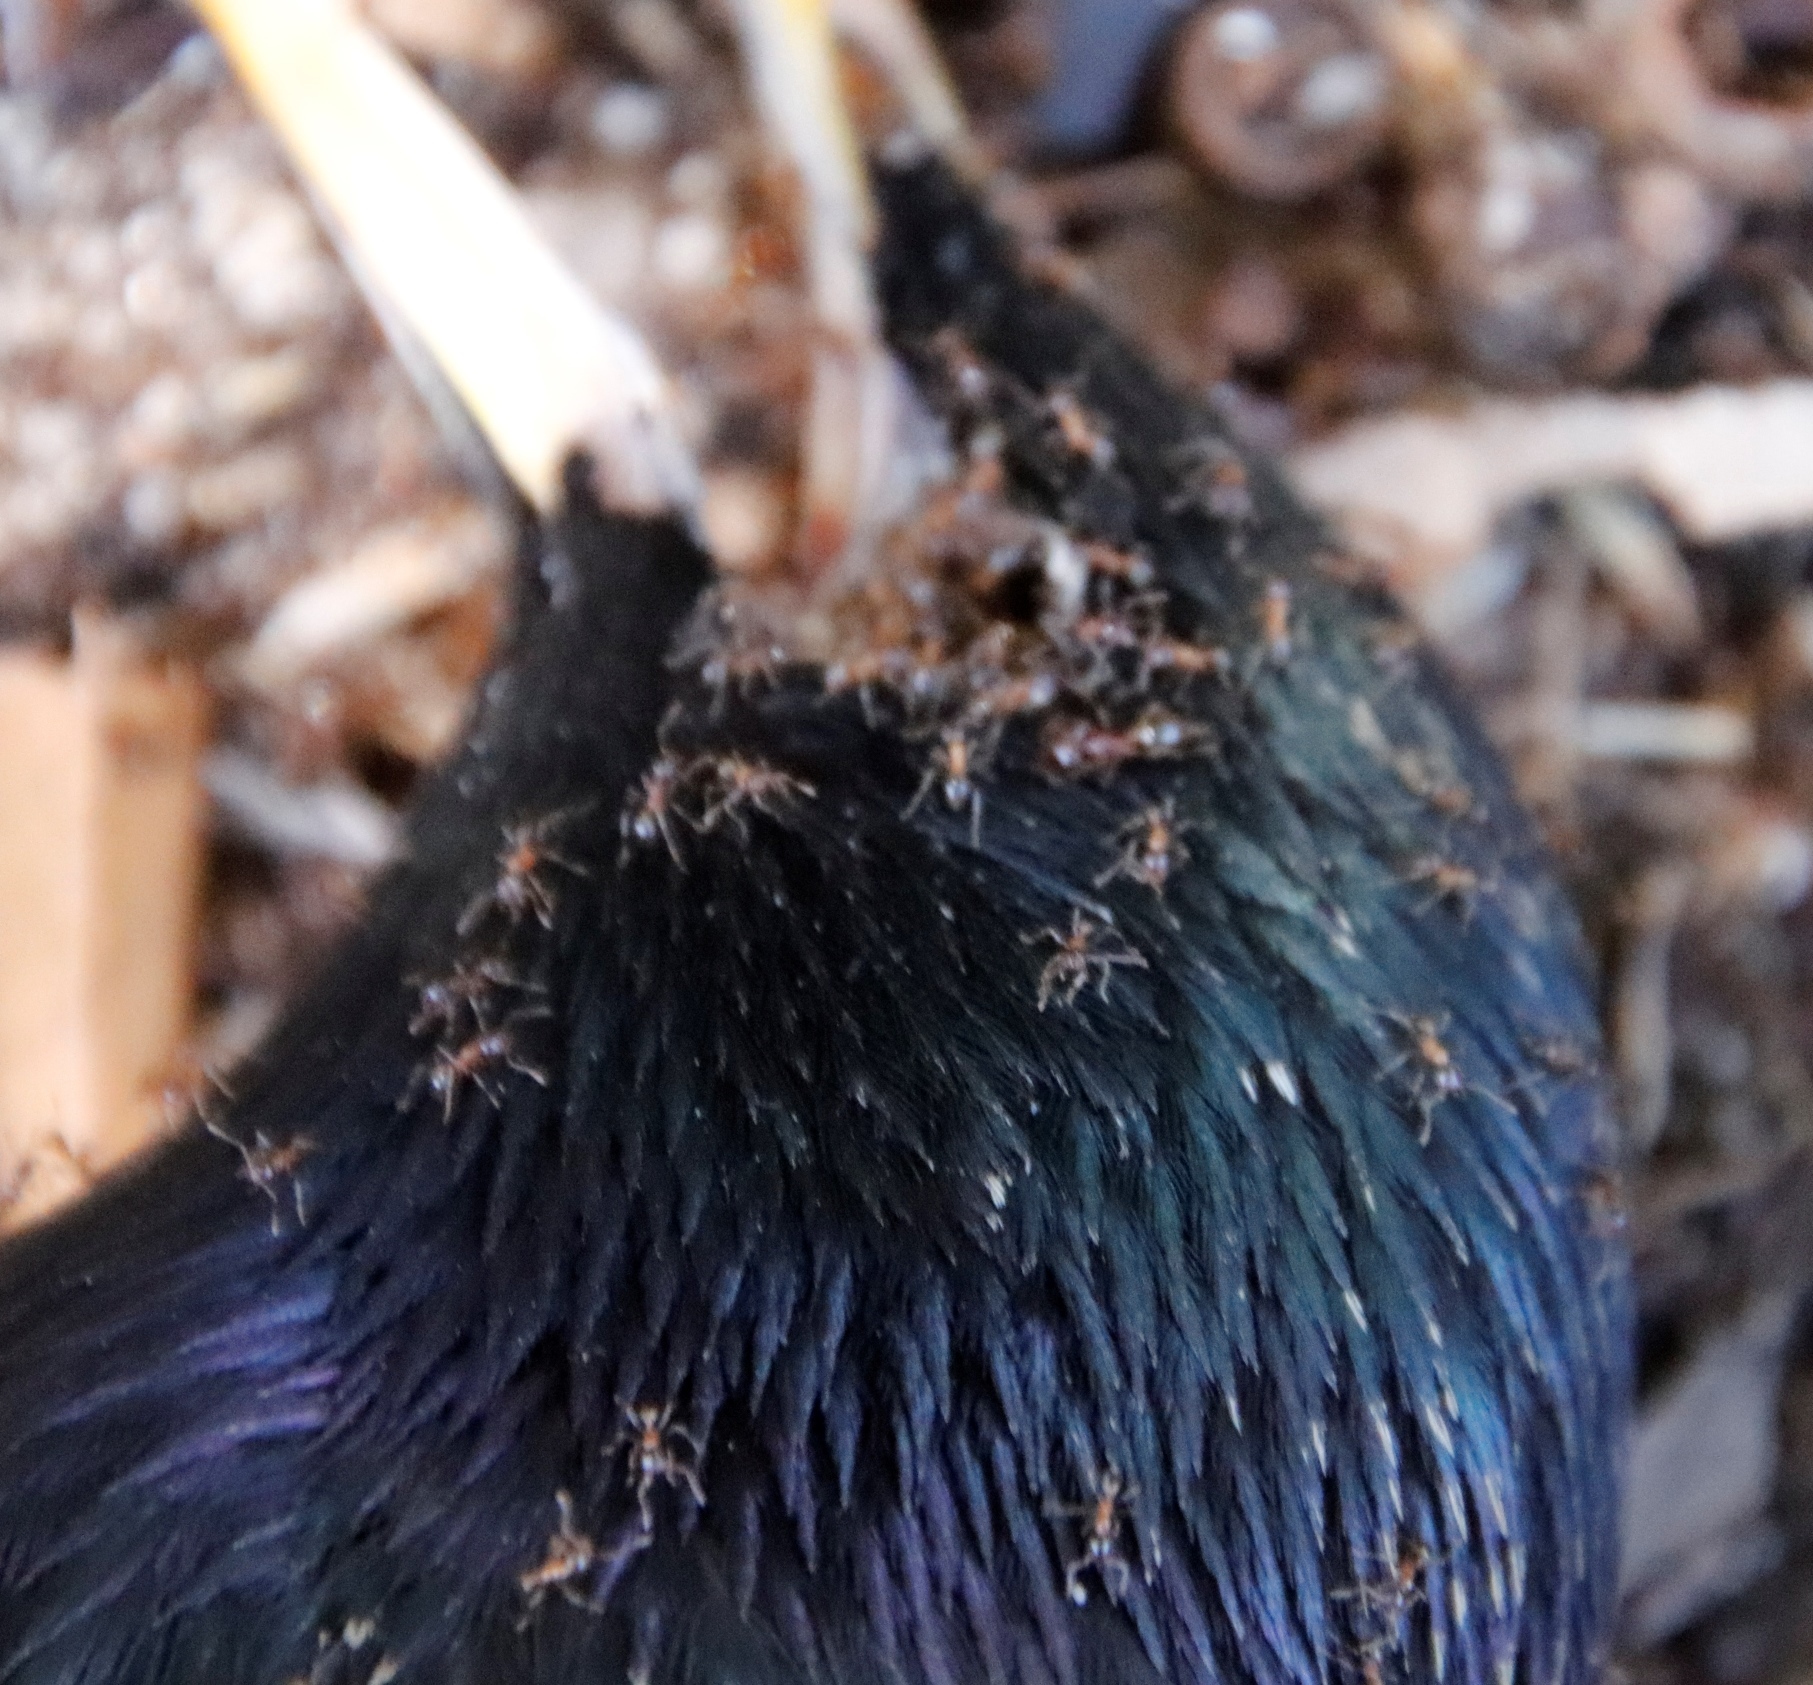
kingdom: Animalia
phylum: Arthropoda
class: Insecta
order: Hymenoptera
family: Formicidae
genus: Pheidole
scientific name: Pheidole megacephala
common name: Bigheaded ant
